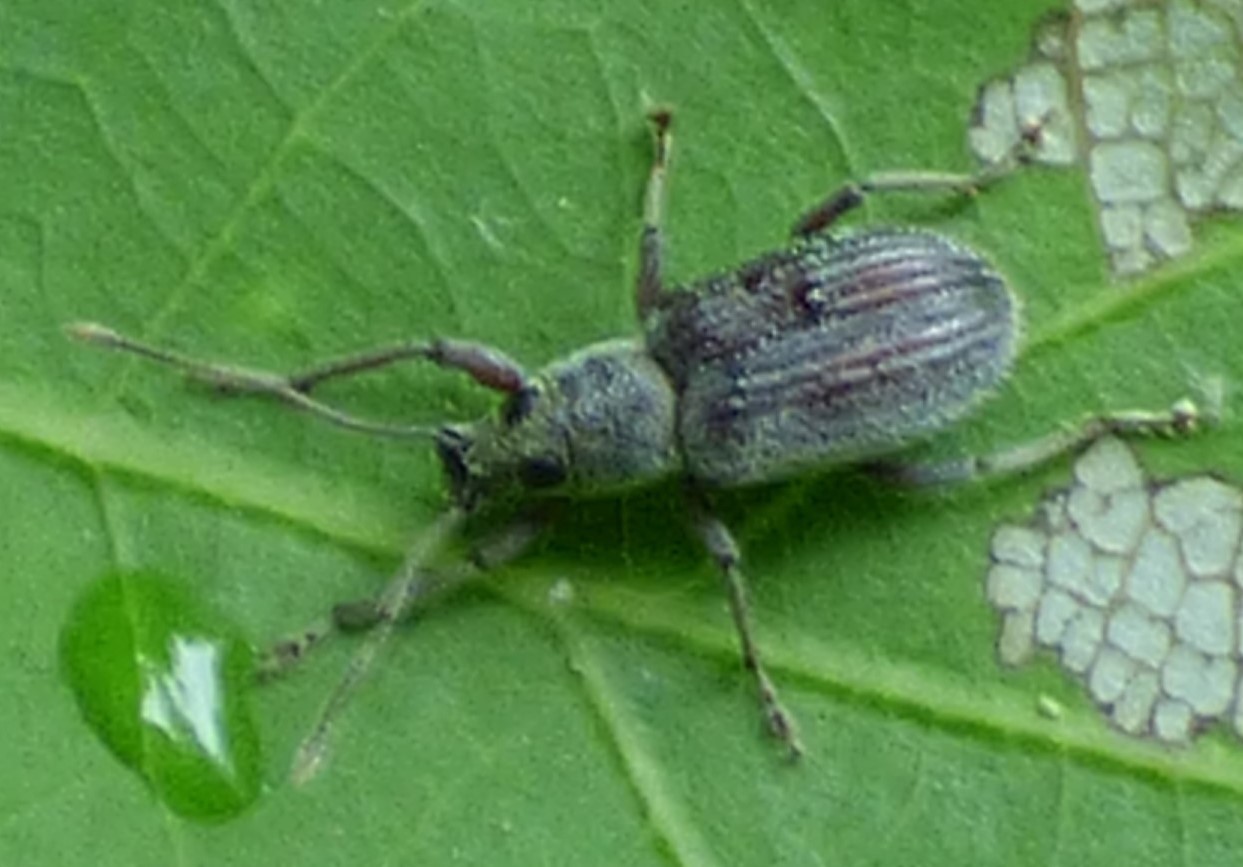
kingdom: Animalia
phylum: Arthropoda
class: Insecta
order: Coleoptera
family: Curculionidae
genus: Cyrtepistomus
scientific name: Cyrtepistomus castaneus
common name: Weevil
